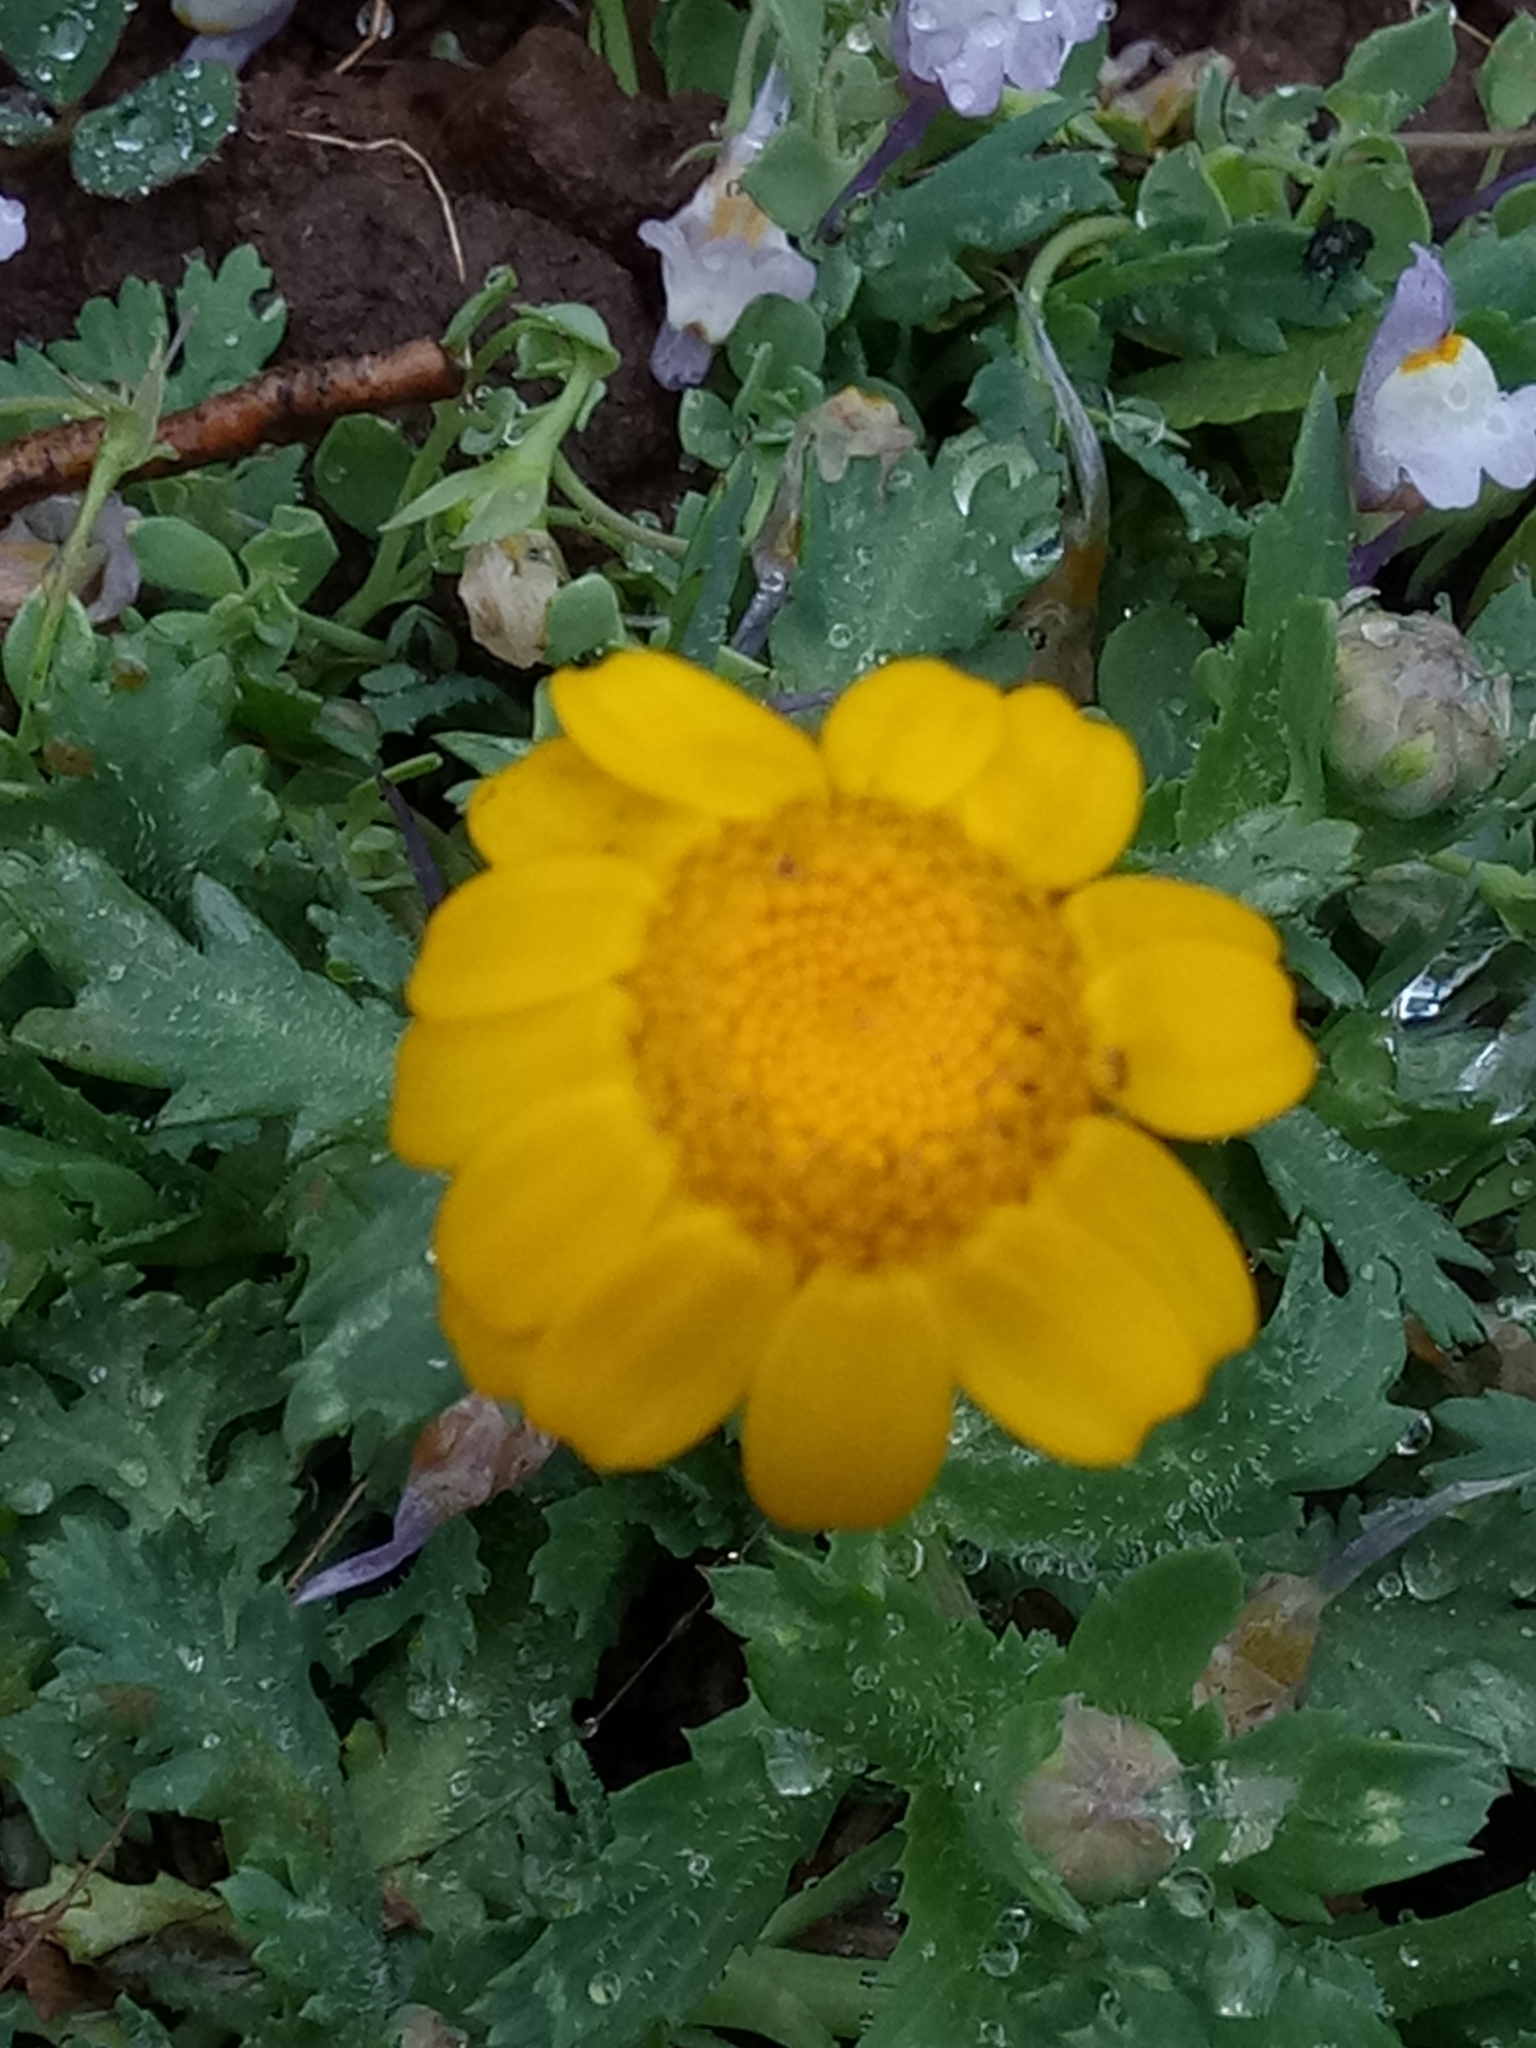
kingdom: Plantae
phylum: Tracheophyta
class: Magnoliopsida
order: Asterales
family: Asteraceae
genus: Glebionis
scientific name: Glebionis segetum
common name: Corndaisy
